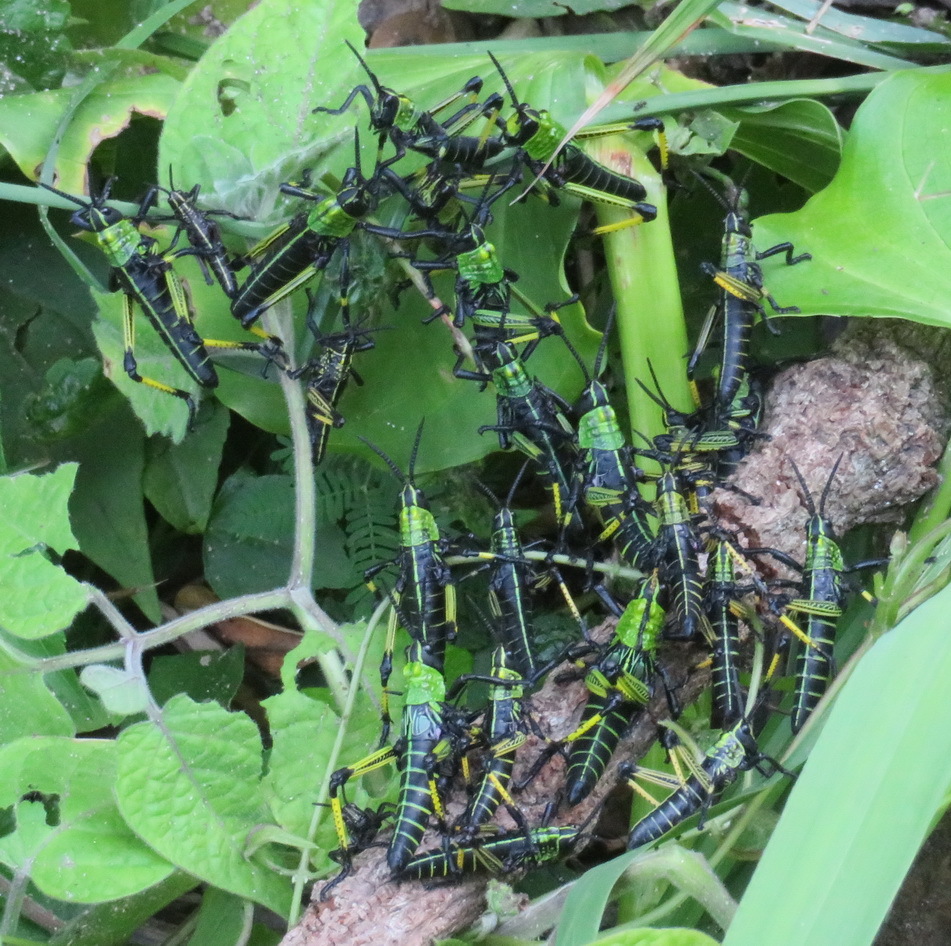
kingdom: Animalia
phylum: Arthropoda
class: Insecta
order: Orthoptera
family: Pyrgomorphidae
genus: Phymateus
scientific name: Phymateus leprosus
